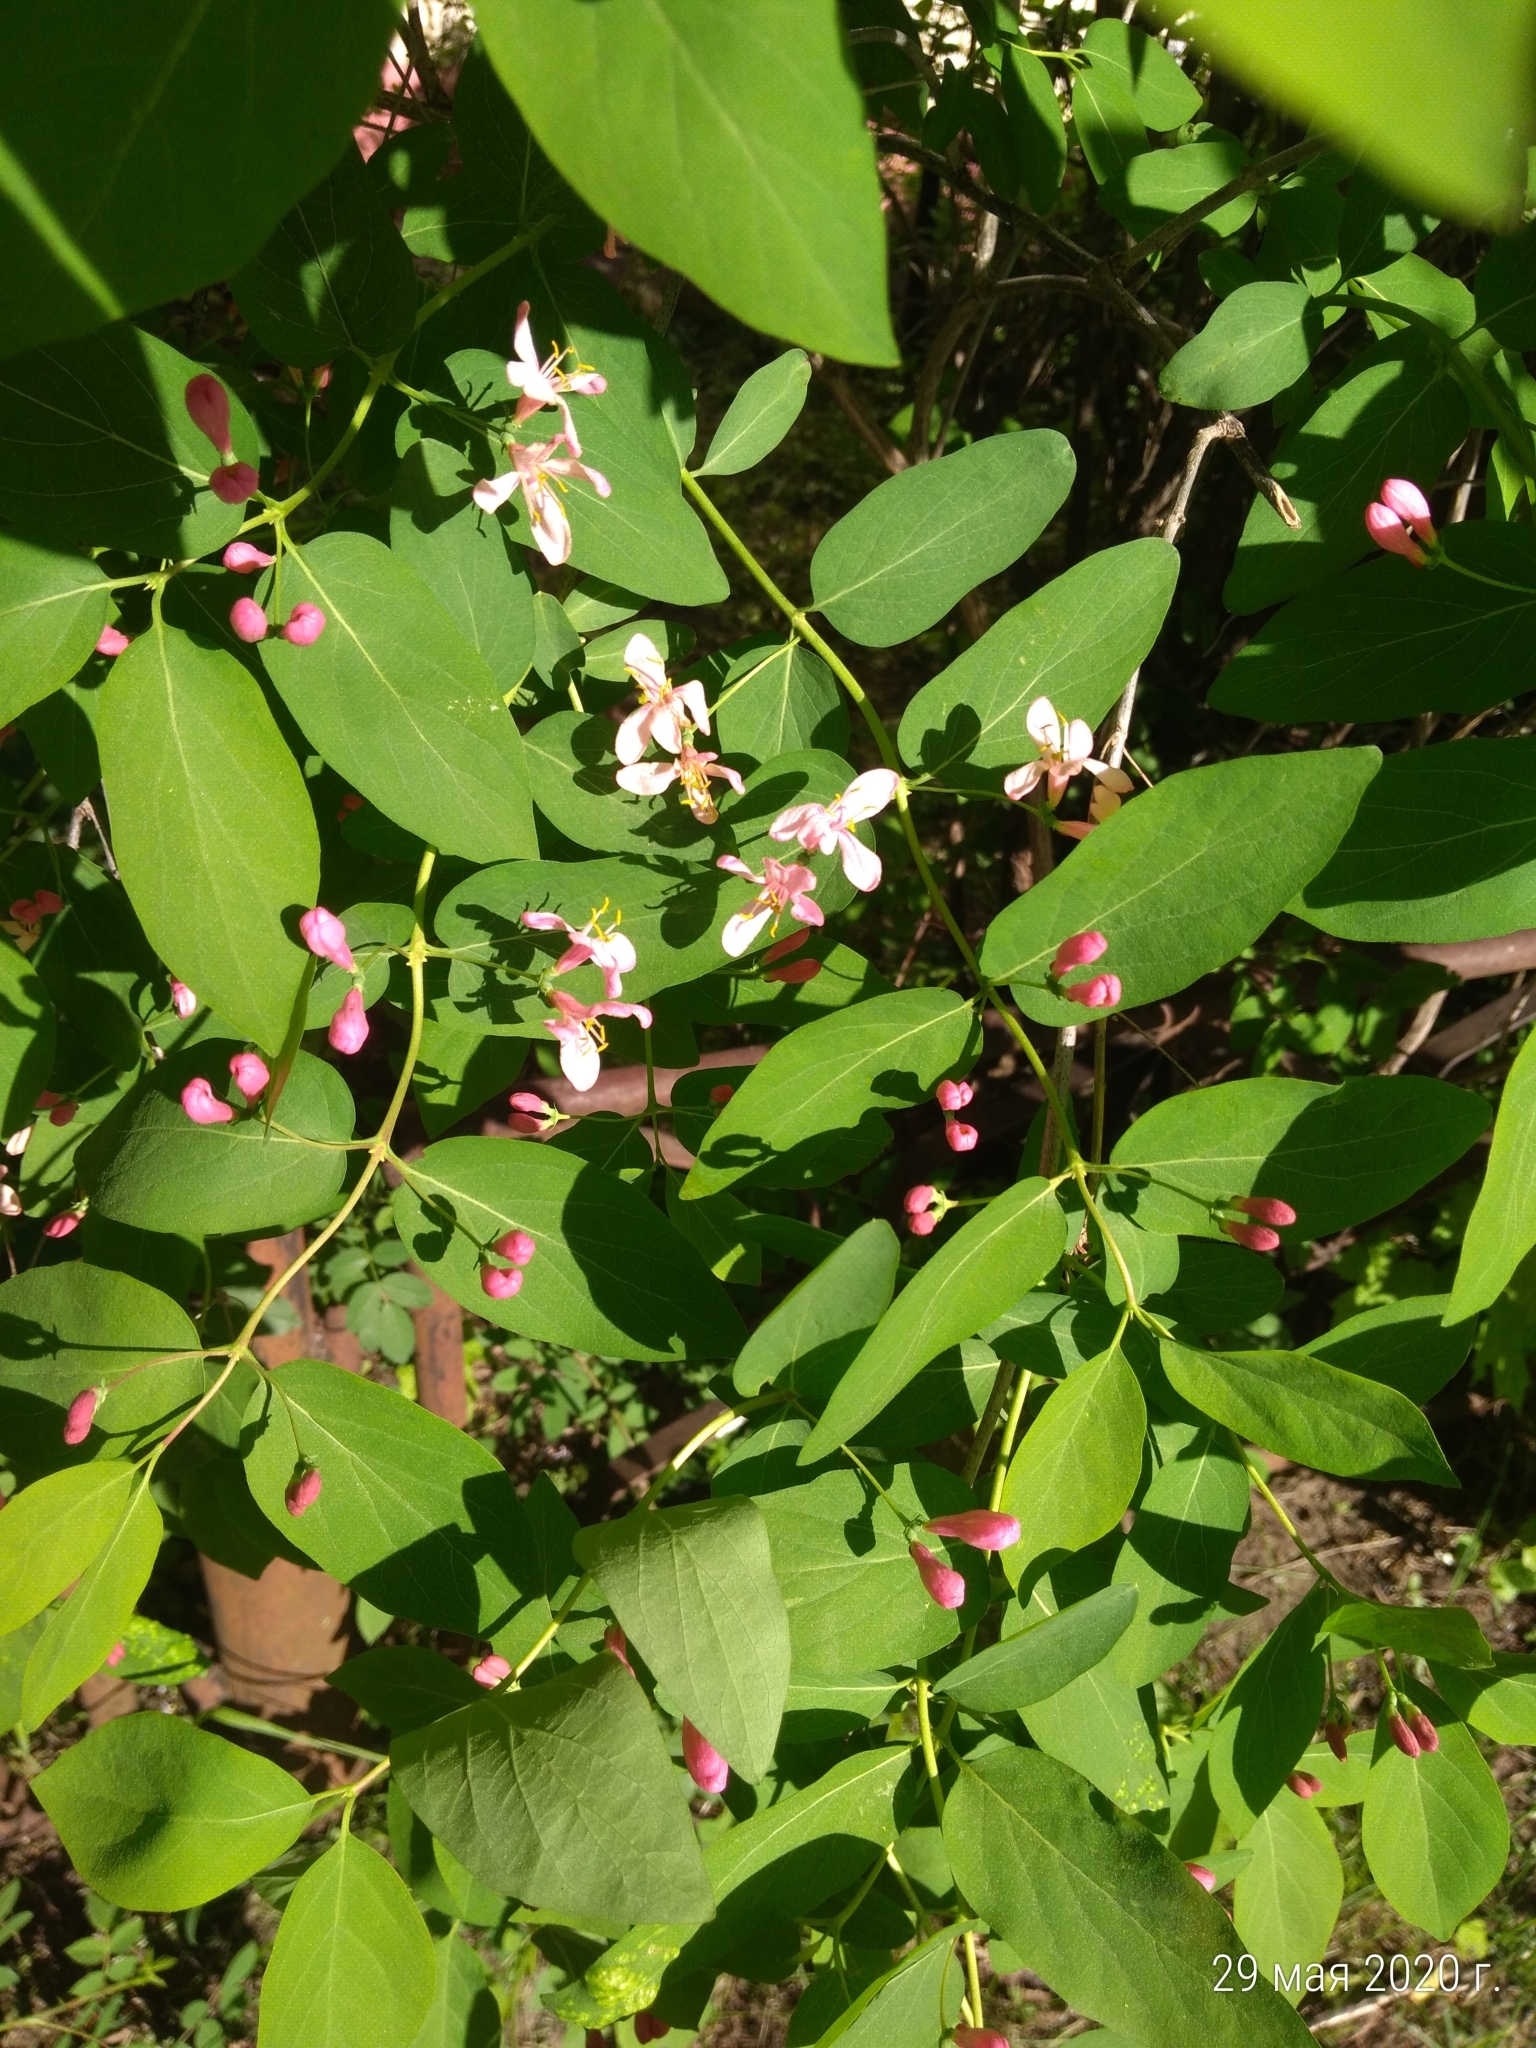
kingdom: Plantae
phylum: Tracheophyta
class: Magnoliopsida
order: Dipsacales
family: Caprifoliaceae
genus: Lonicera
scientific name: Lonicera tatarica
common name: Tatarian honeysuckle
